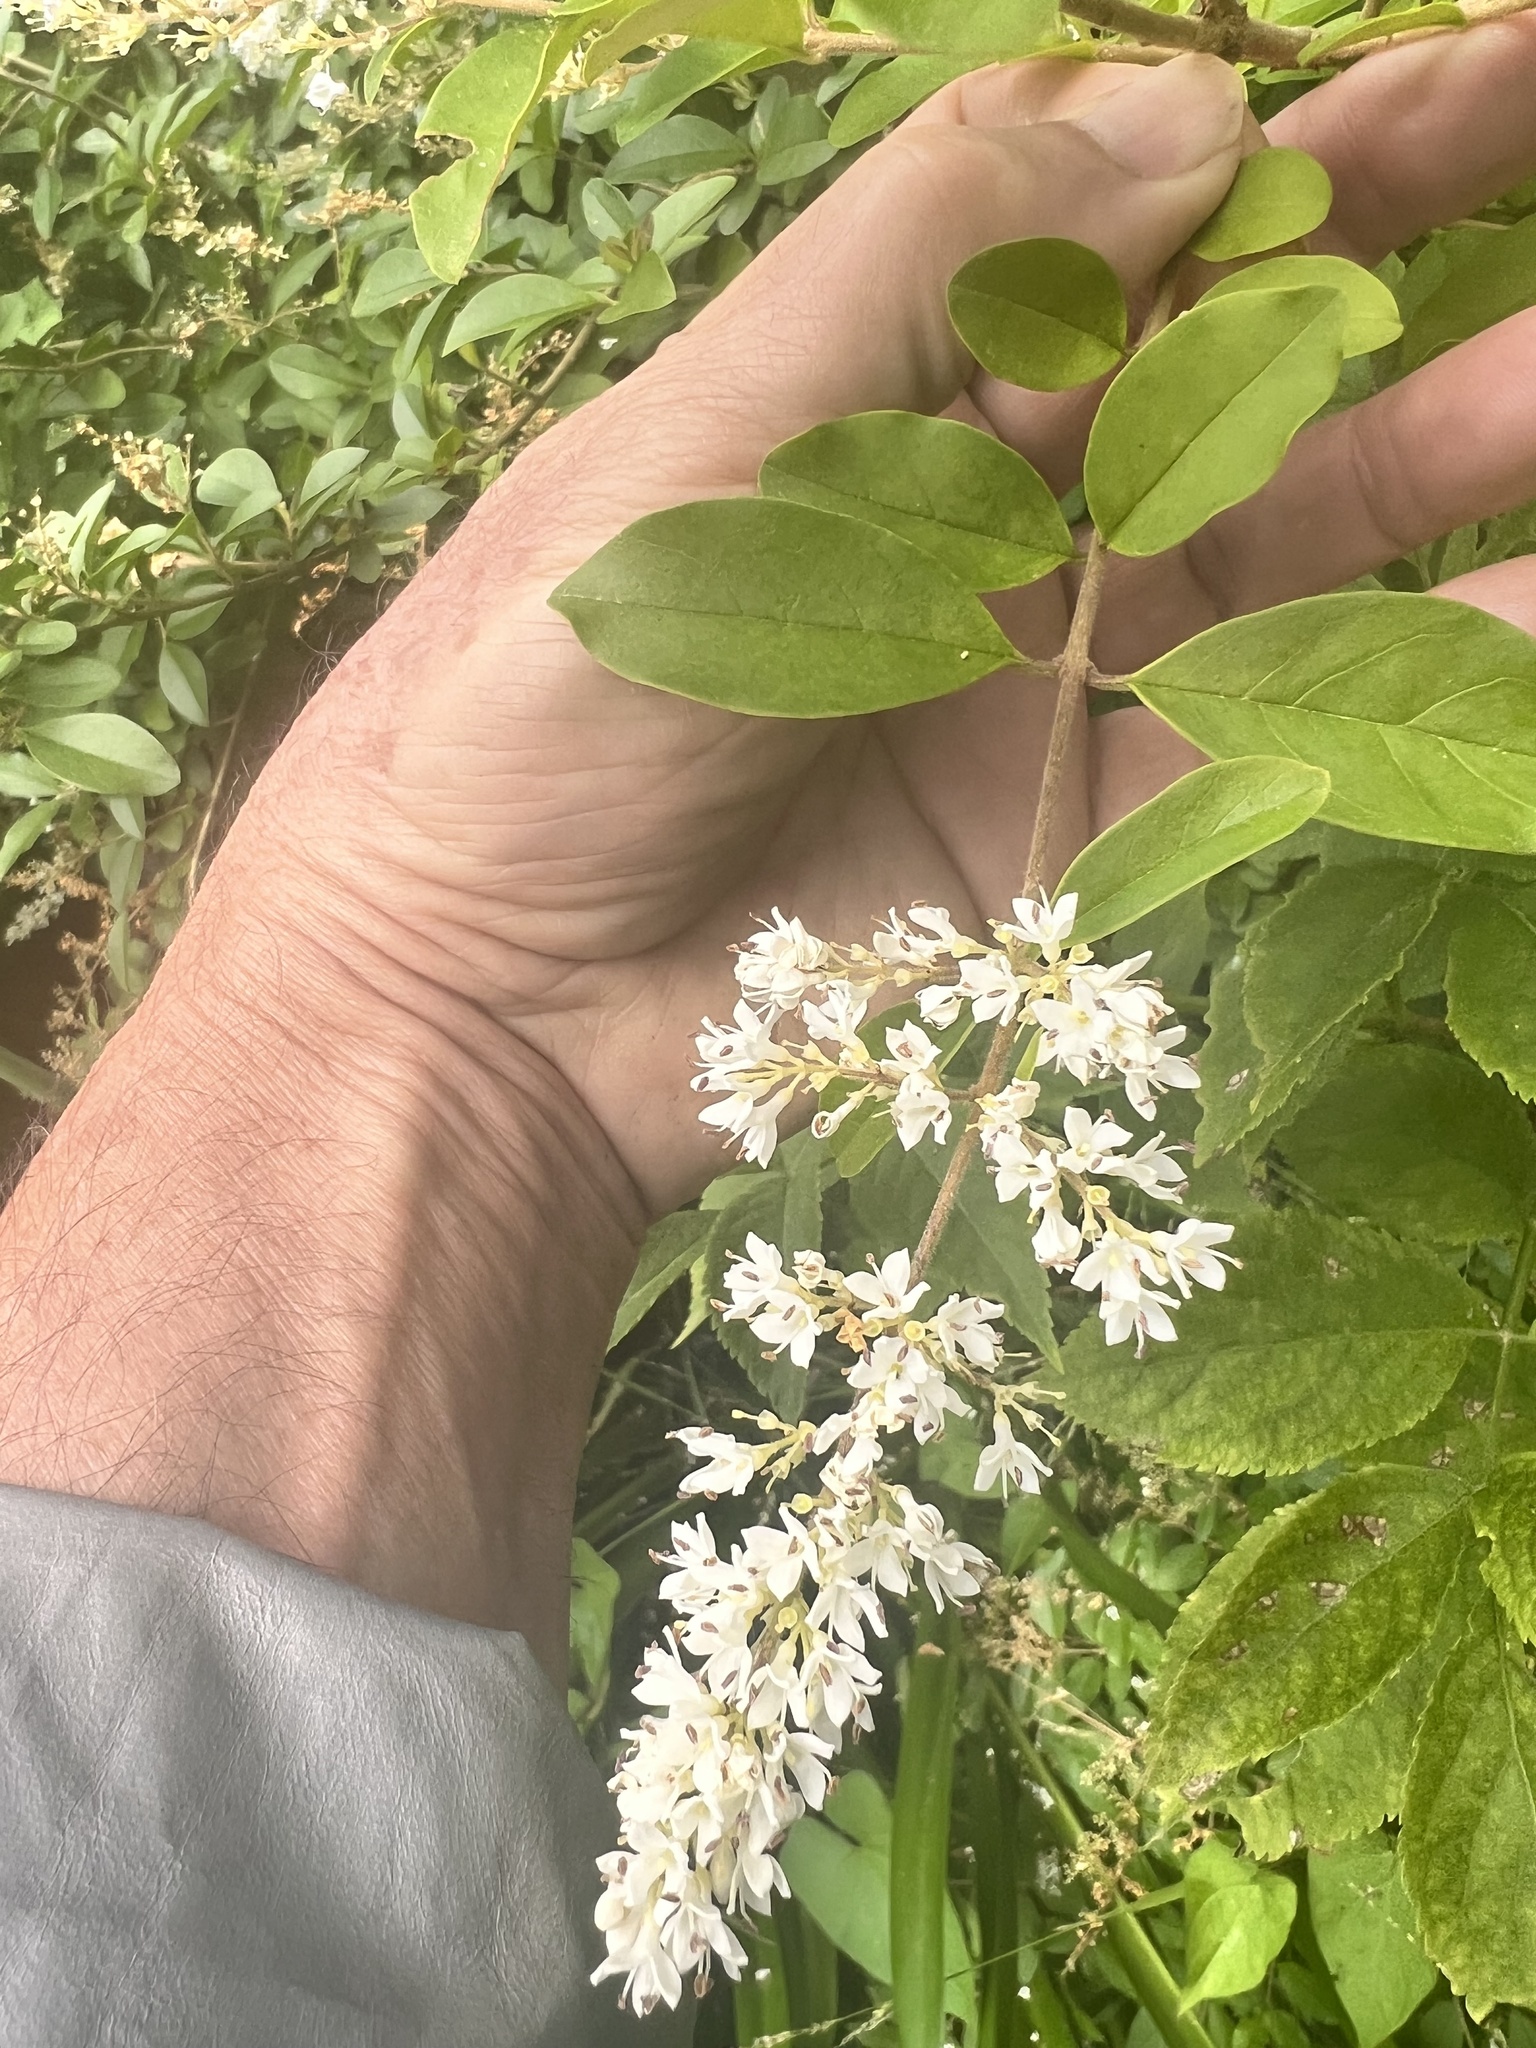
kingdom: Plantae
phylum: Tracheophyta
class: Magnoliopsida
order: Lamiales
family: Oleaceae
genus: Ligustrum
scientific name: Ligustrum sinense
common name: Chinese privet
